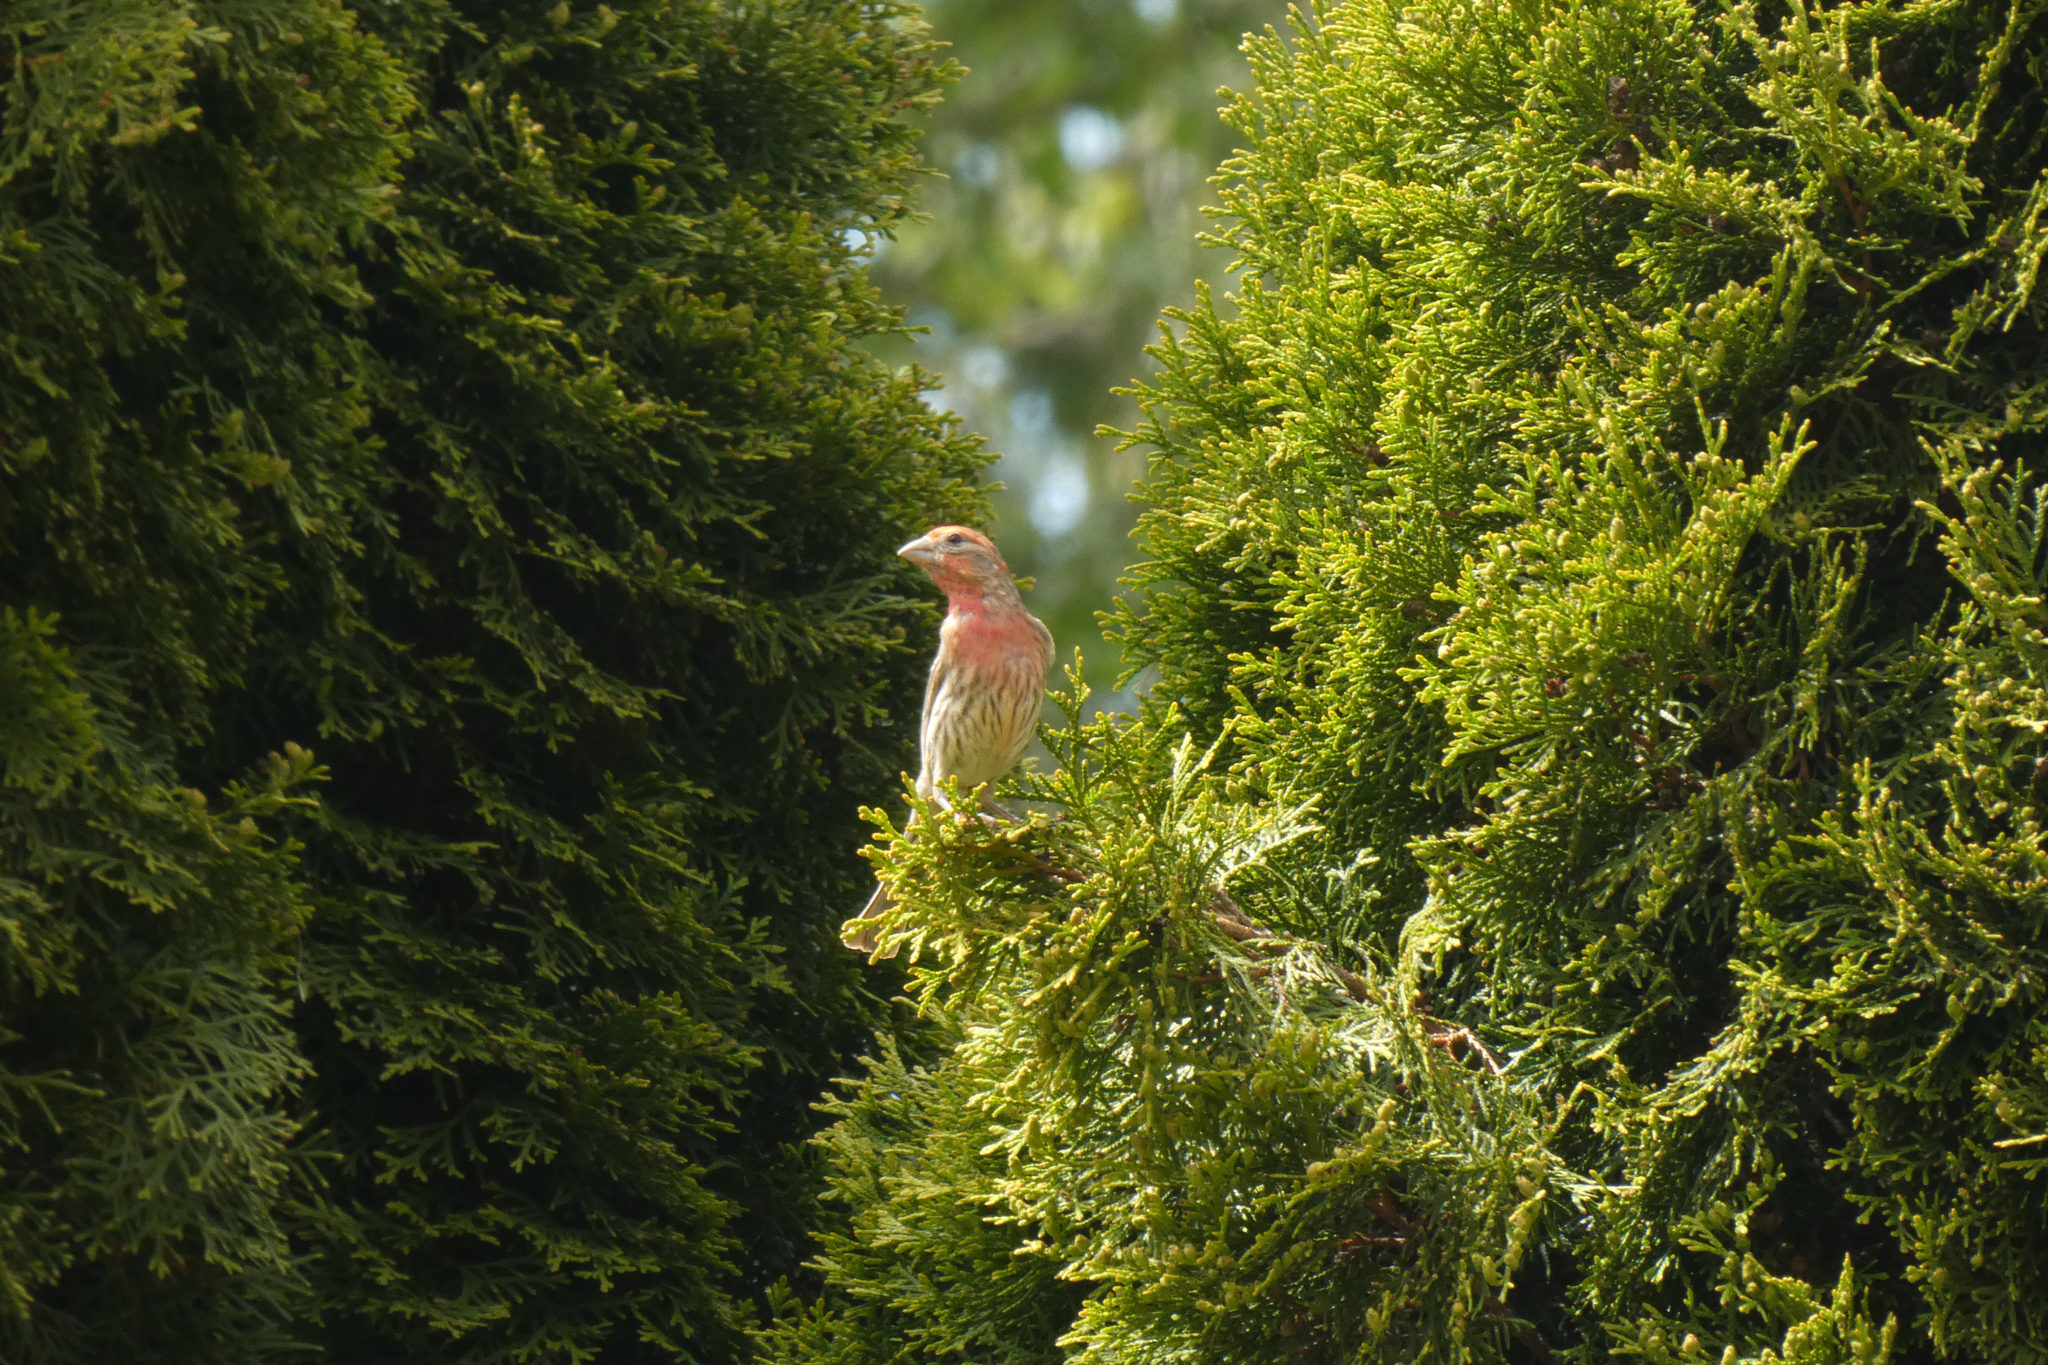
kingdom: Animalia
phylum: Chordata
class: Aves
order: Passeriformes
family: Fringillidae
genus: Haemorhous
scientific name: Haemorhous mexicanus
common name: House finch
